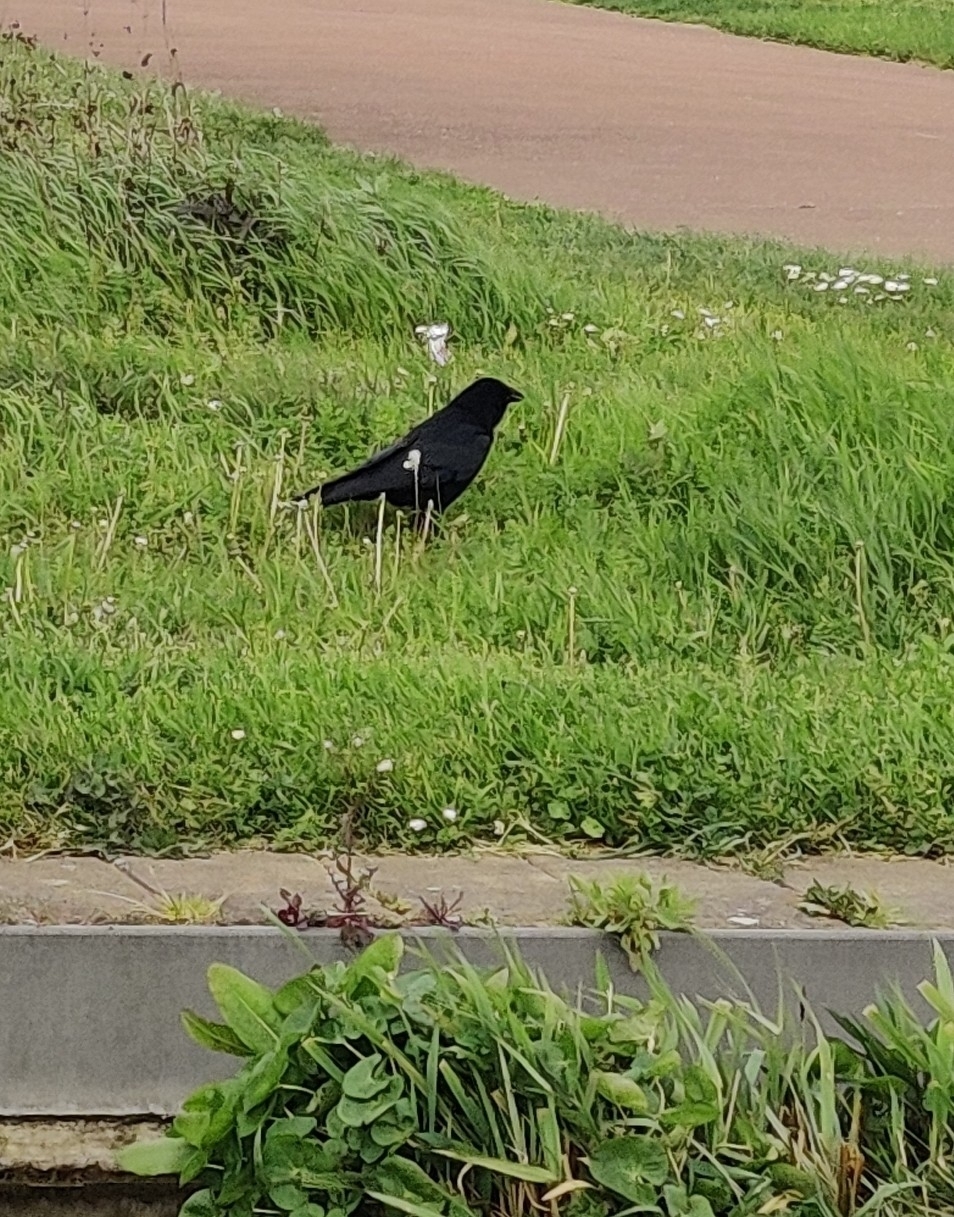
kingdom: Animalia
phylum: Chordata
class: Aves
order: Passeriformes
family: Corvidae
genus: Corvus
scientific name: Corvus corone
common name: Carrion crow
